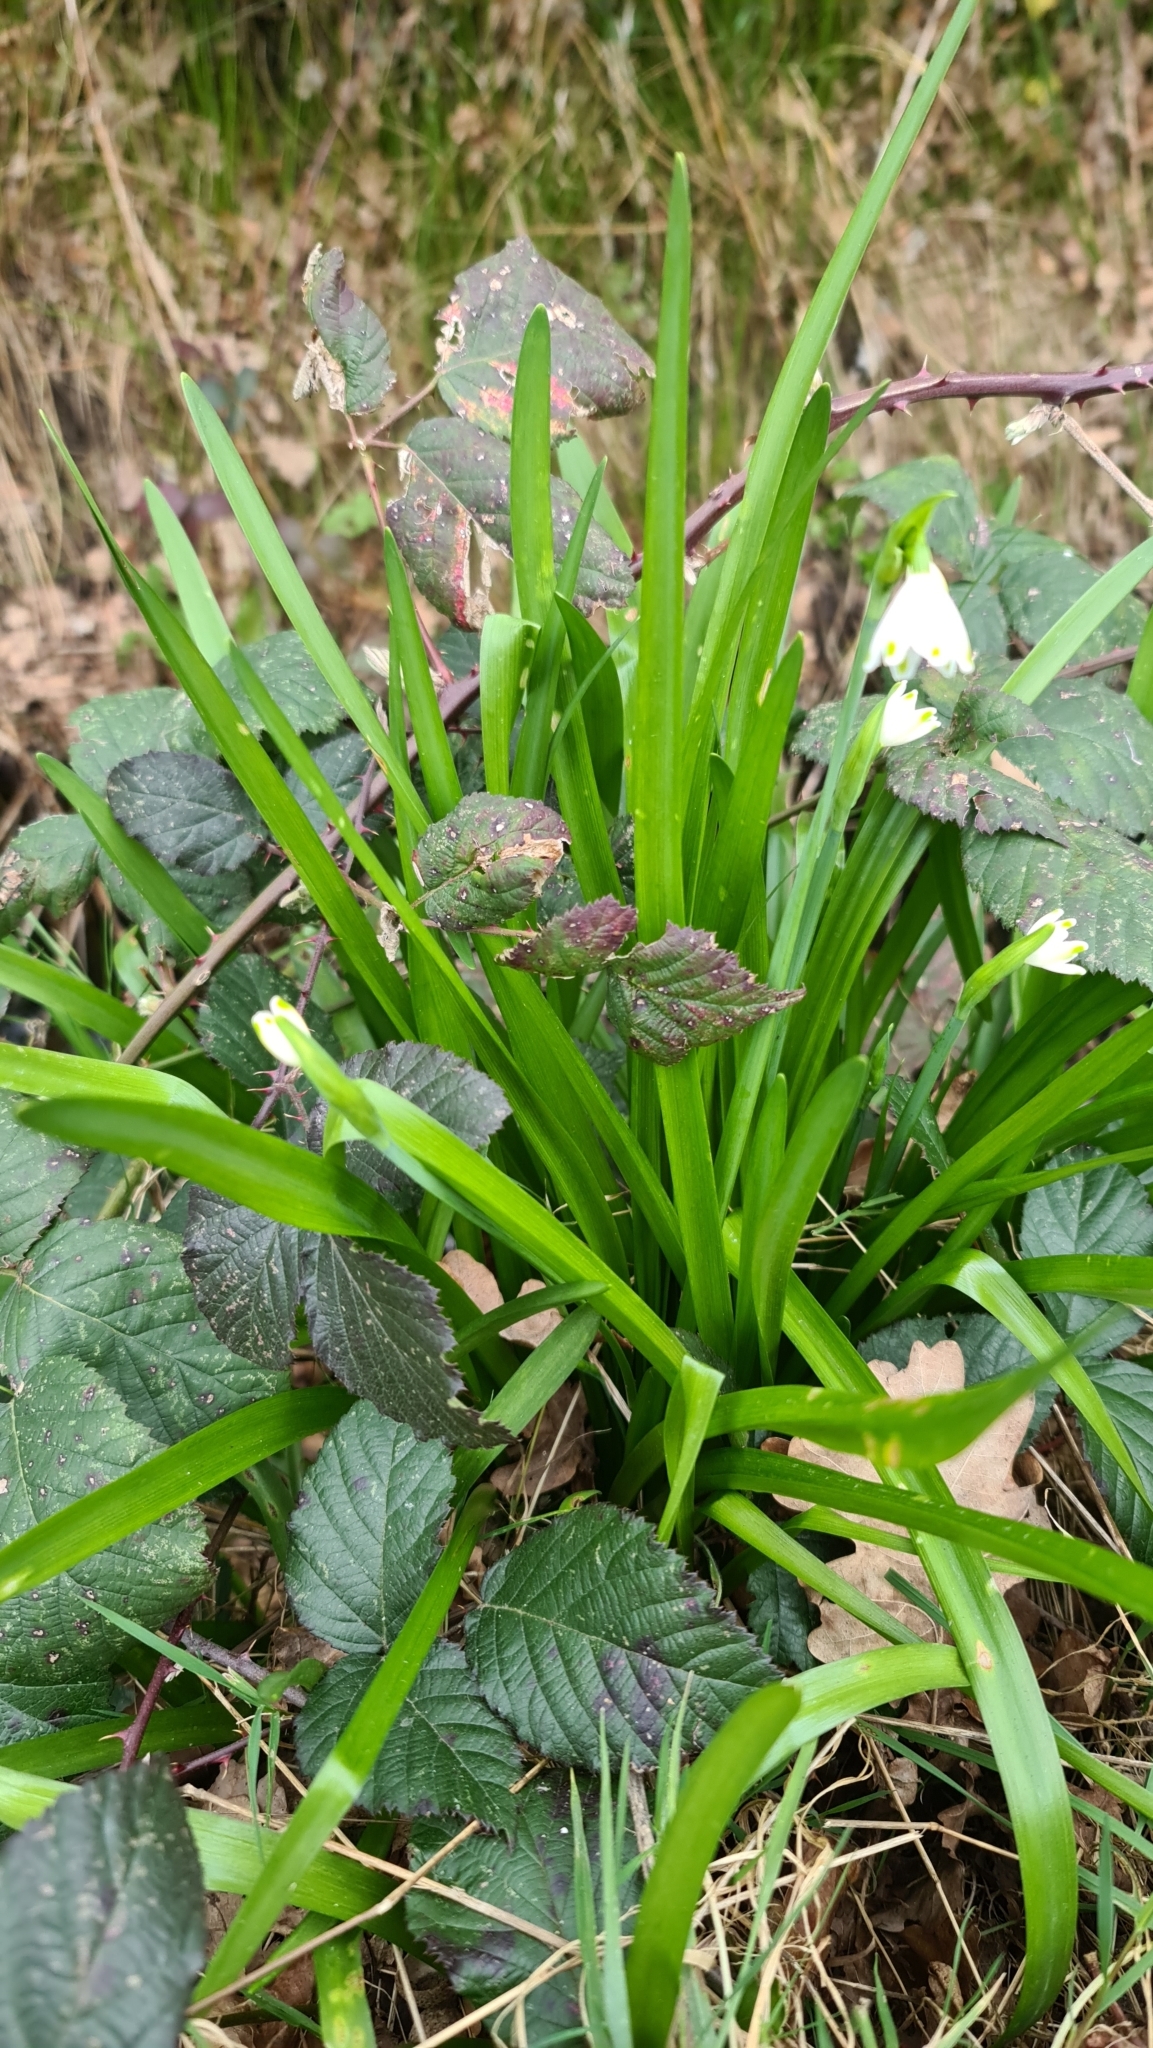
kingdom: Plantae
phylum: Tracheophyta
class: Liliopsida
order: Asparagales
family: Amaryllidaceae
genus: Leucojum
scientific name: Leucojum aestivum
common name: Summer snowflake
